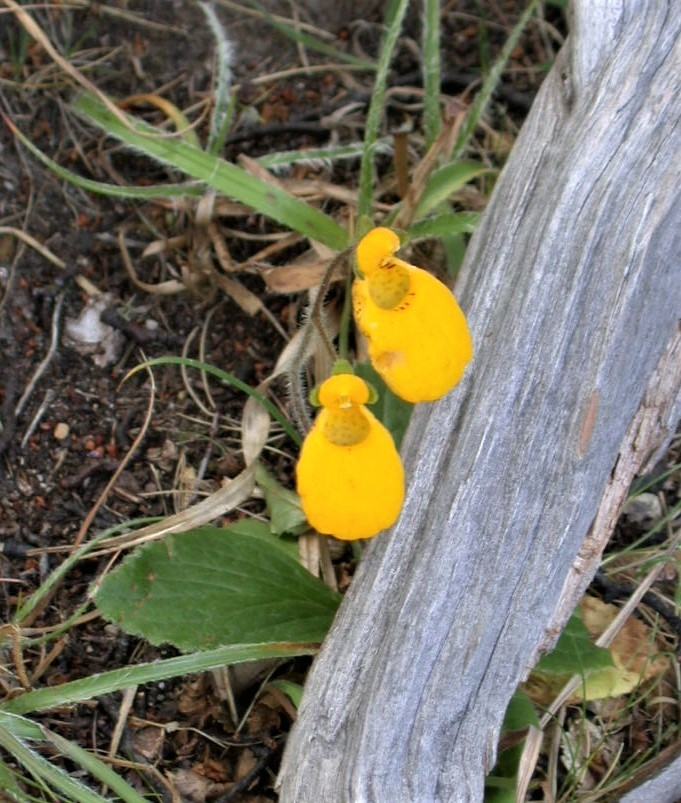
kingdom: Plantae
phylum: Tracheophyta
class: Magnoliopsida
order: Lamiales
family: Calceolariaceae
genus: Calceolaria
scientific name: Calceolaria biflora
